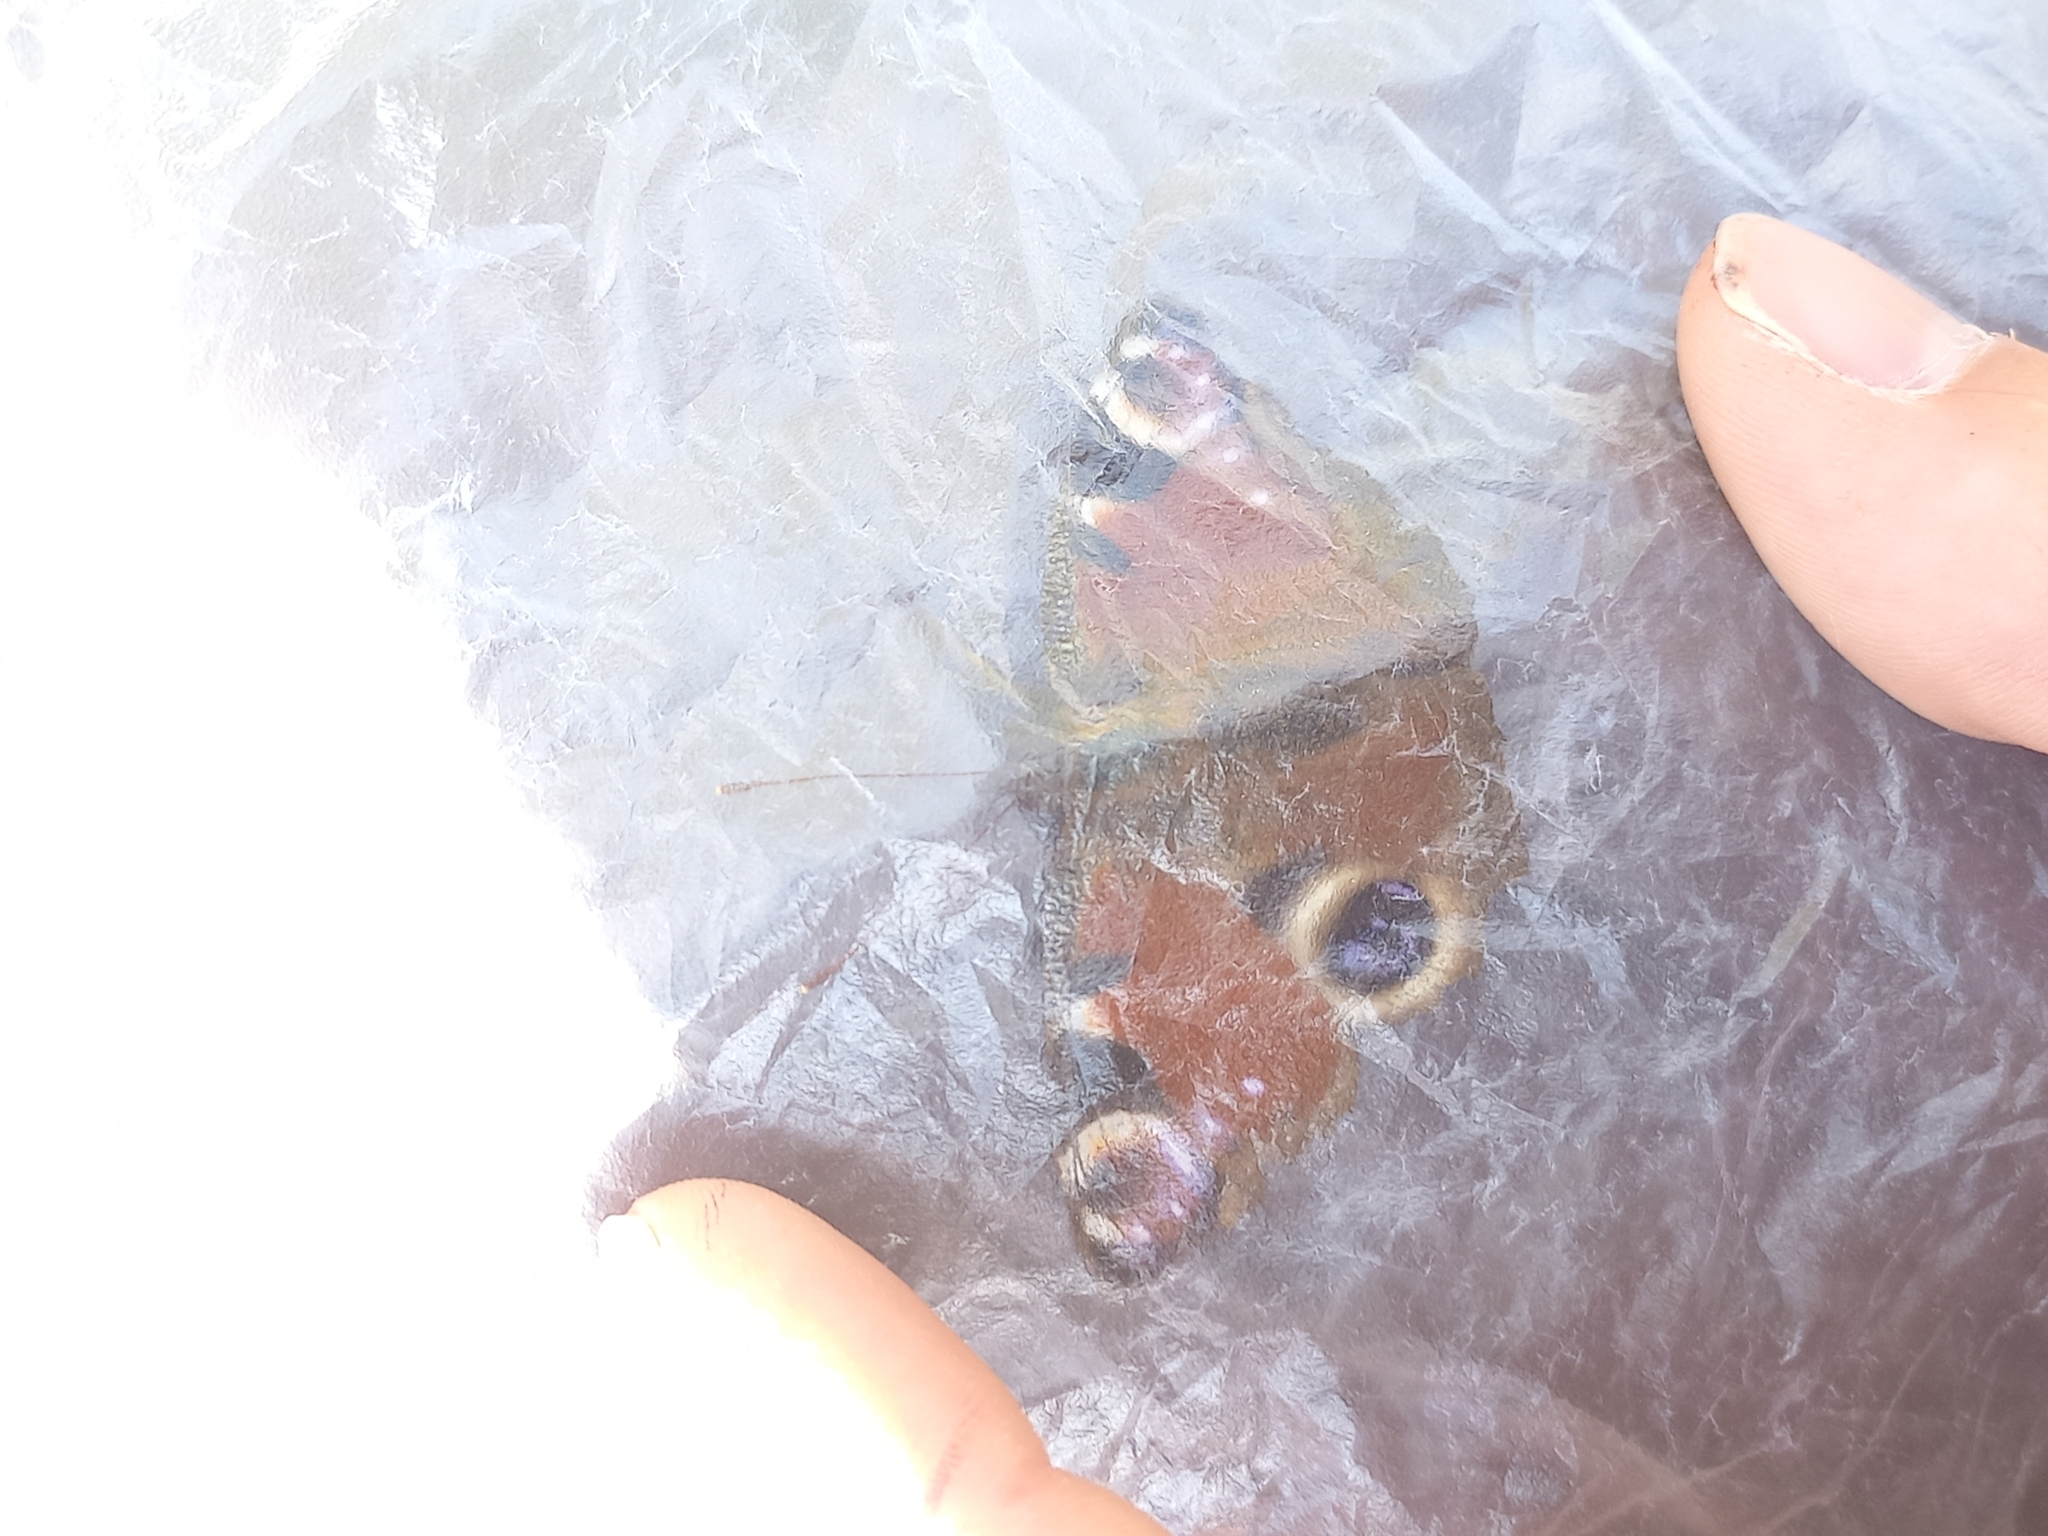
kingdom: Animalia
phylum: Arthropoda
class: Insecta
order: Lepidoptera
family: Nymphalidae
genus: Aglais
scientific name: Aglais io
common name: Peacock
